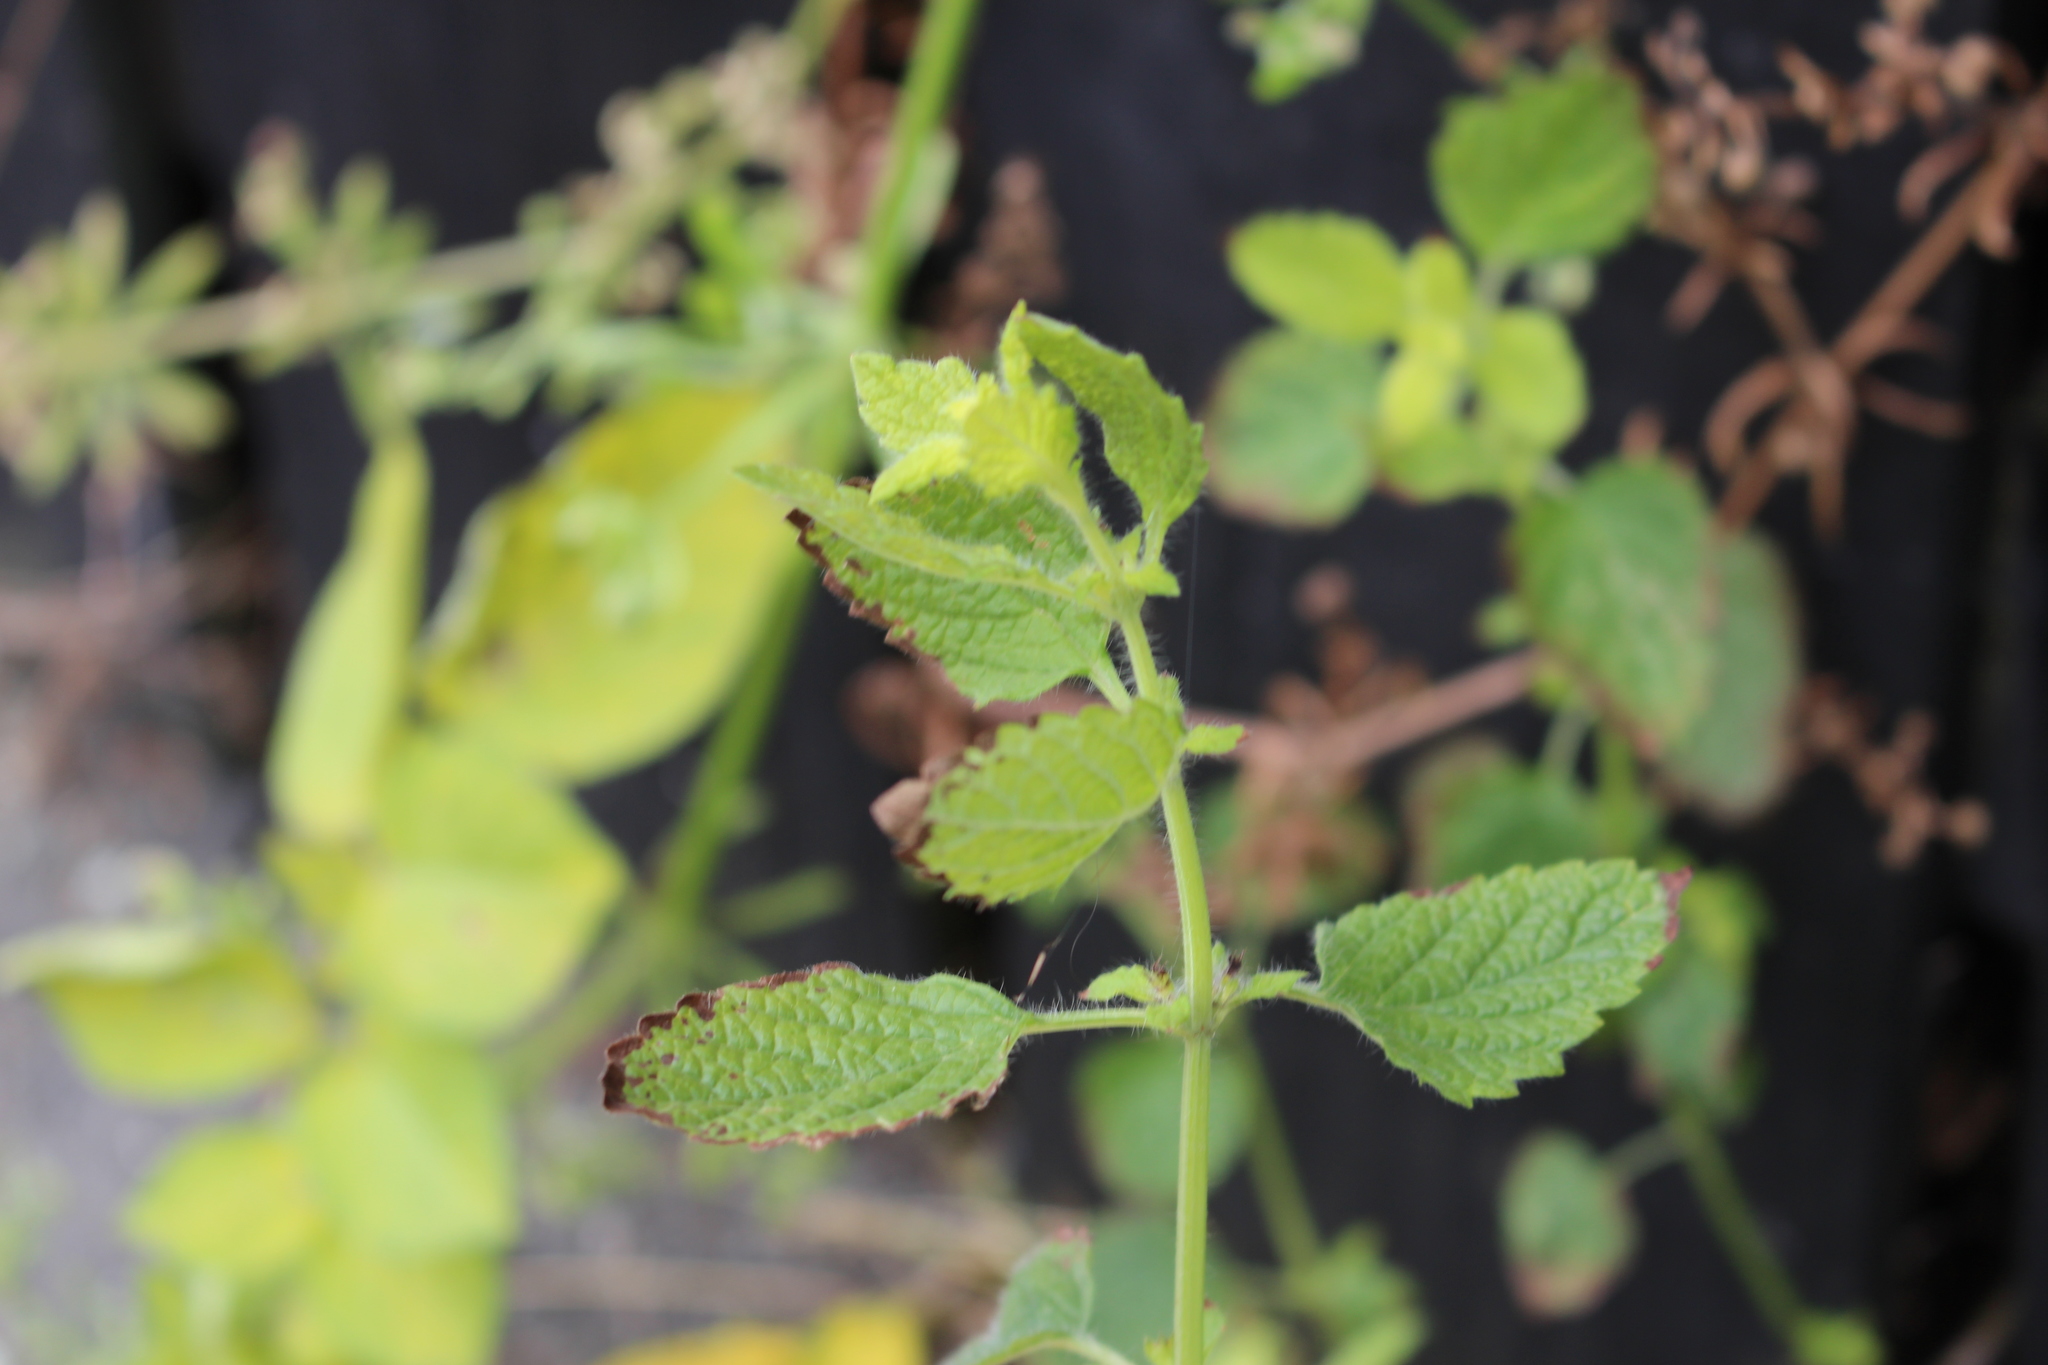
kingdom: Plantae
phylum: Tracheophyta
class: Magnoliopsida
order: Lamiales
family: Lamiaceae
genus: Melissa
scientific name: Melissa officinalis
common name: Balm
